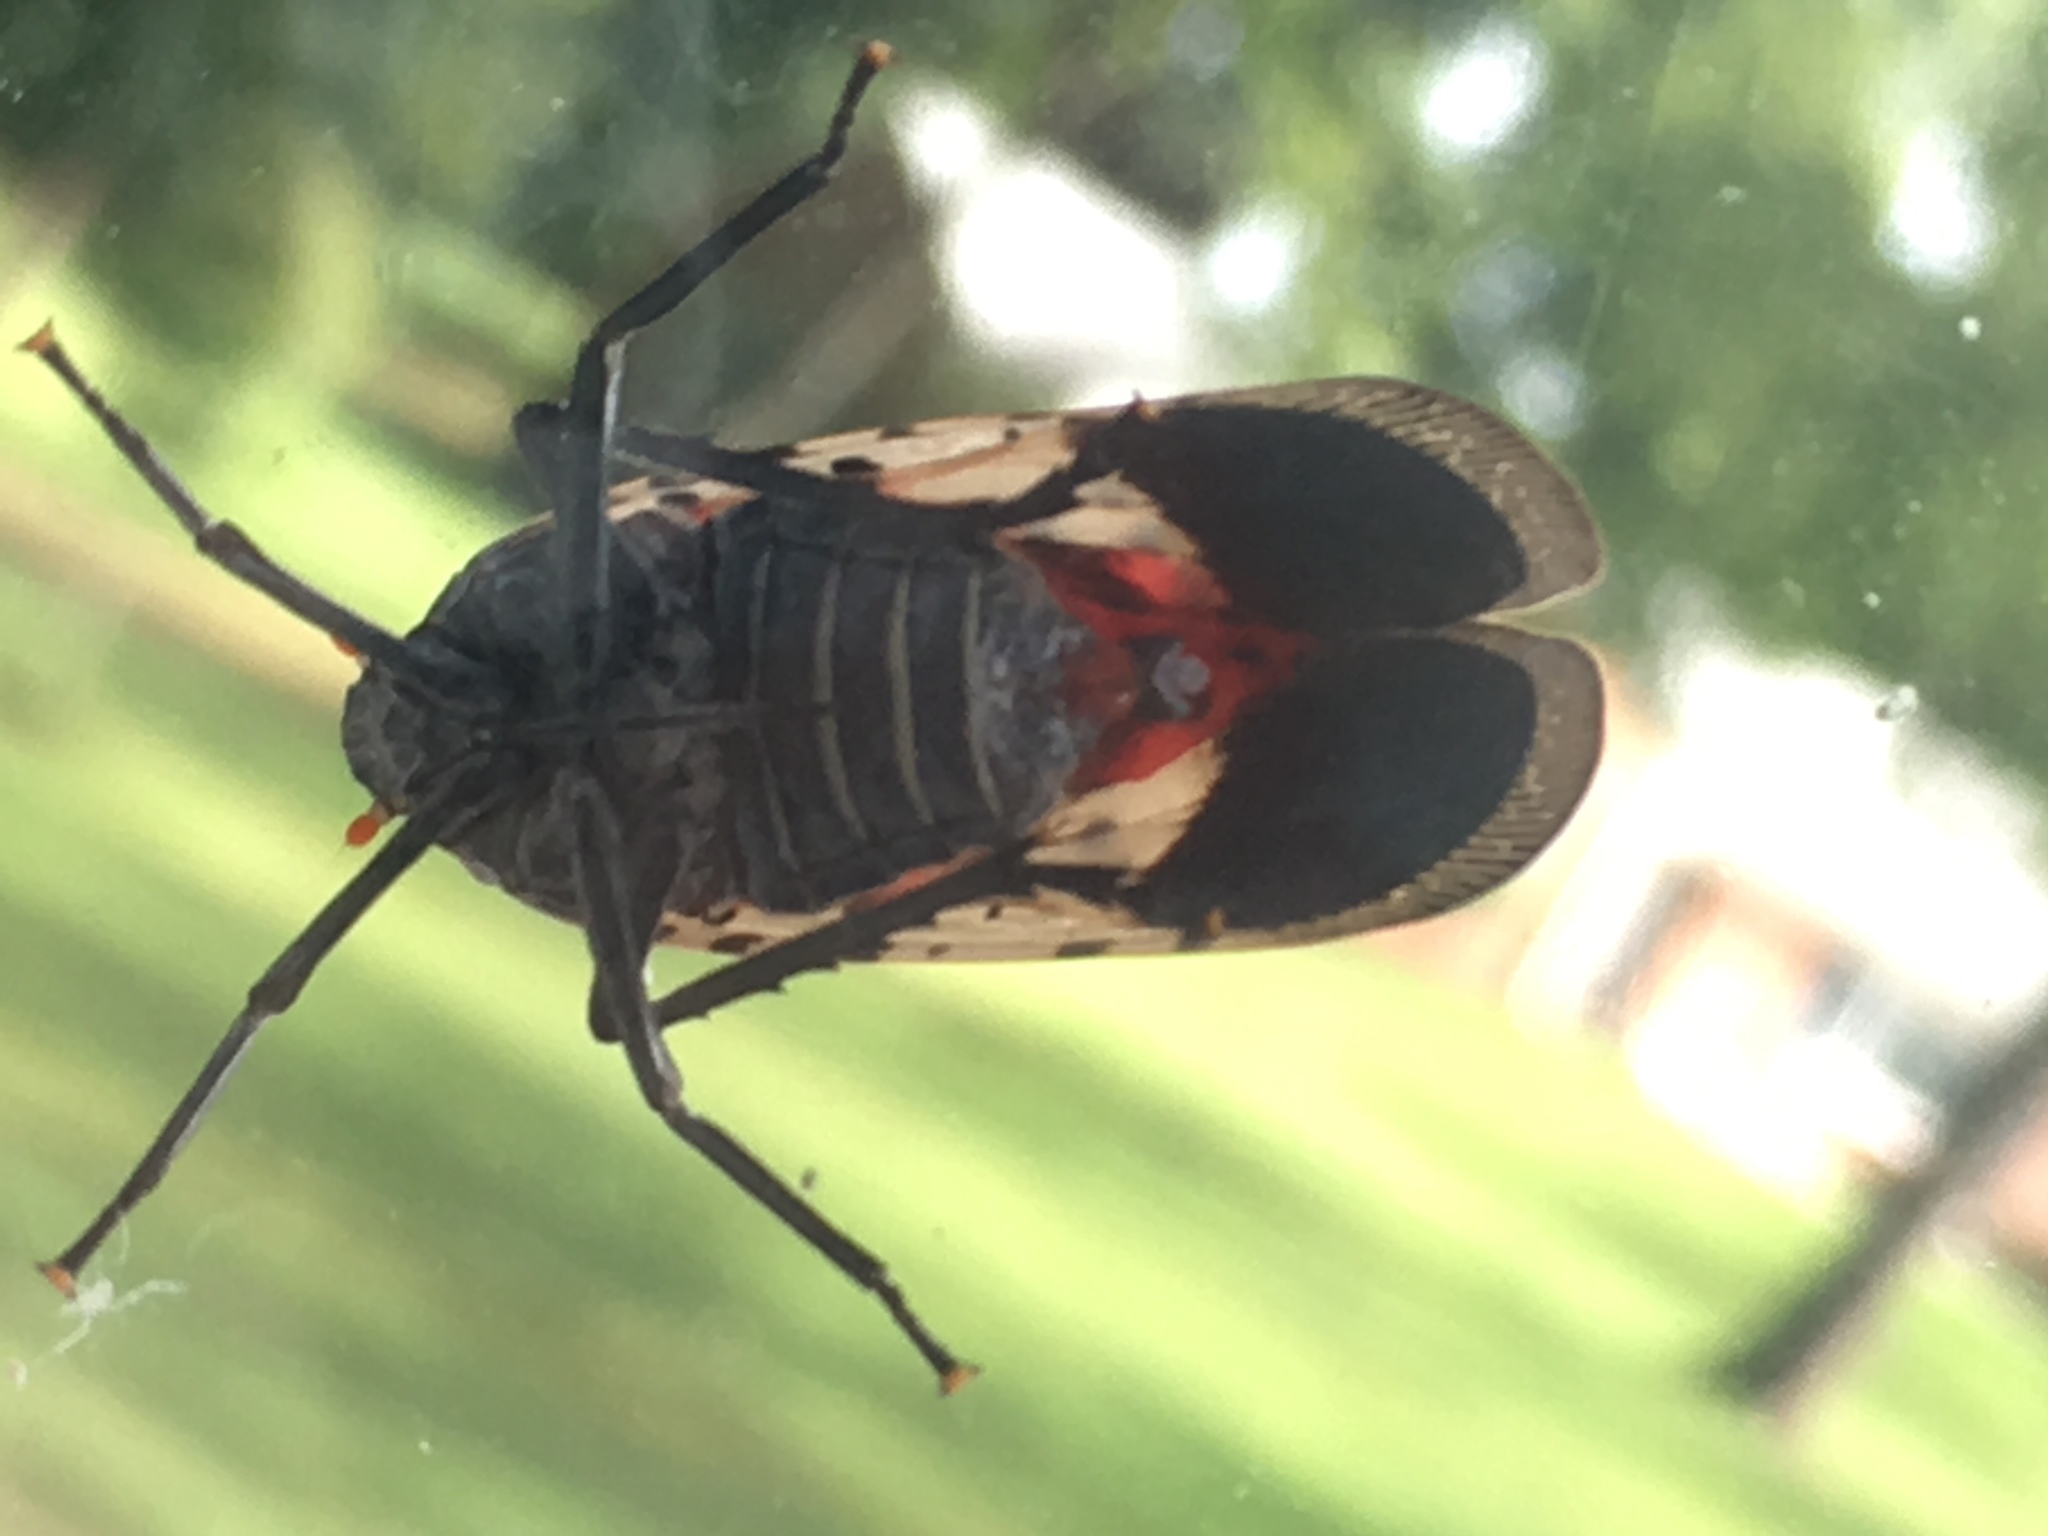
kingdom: Animalia
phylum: Arthropoda
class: Insecta
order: Hemiptera
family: Fulgoridae
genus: Lycorma
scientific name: Lycorma delicatula
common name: Spotted lanternfly
